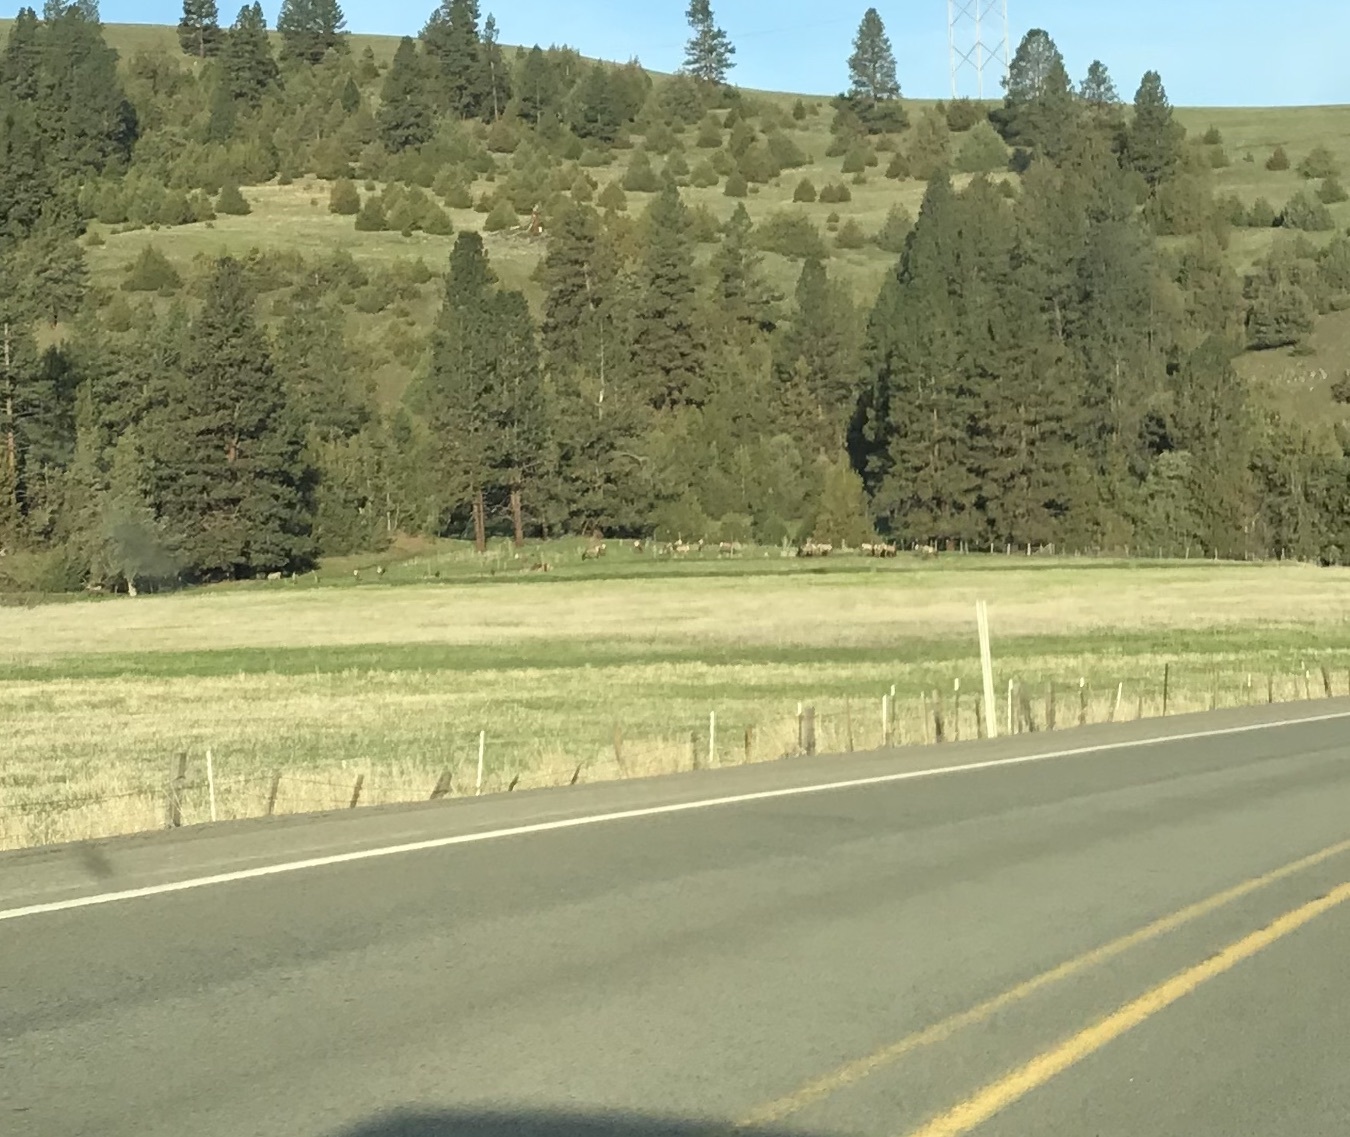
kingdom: Animalia
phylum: Chordata
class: Mammalia
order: Artiodactyla
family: Cervidae
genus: Cervus
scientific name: Cervus elaphus
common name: Red deer
